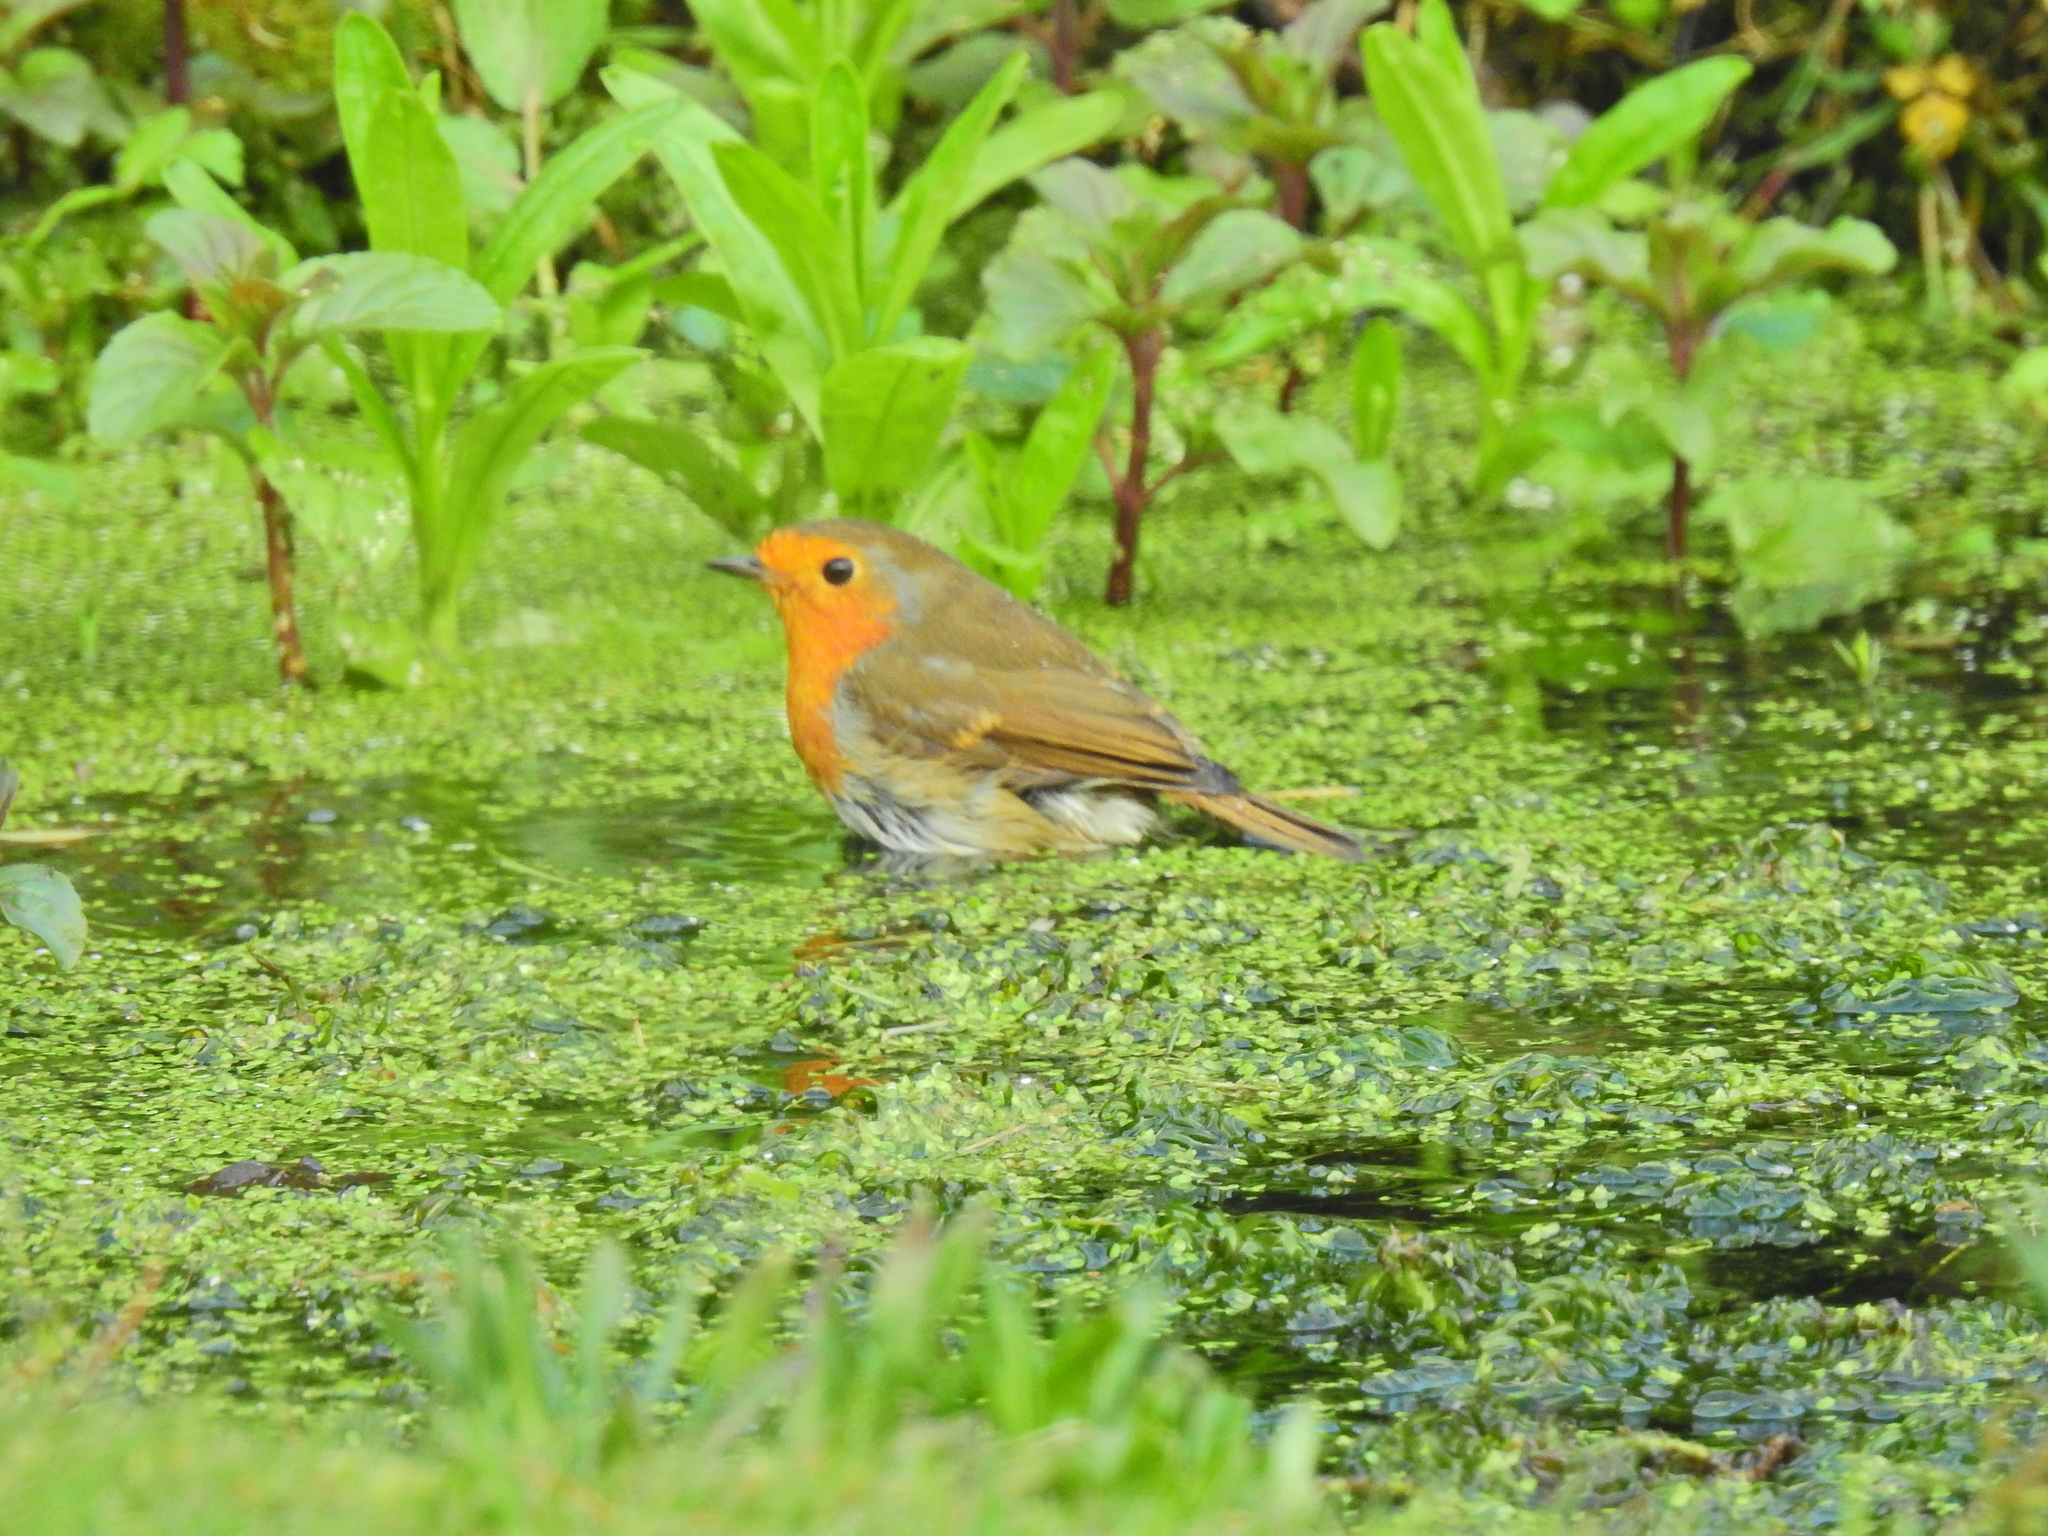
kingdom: Animalia
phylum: Chordata
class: Aves
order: Passeriformes
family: Muscicapidae
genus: Erithacus
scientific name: Erithacus rubecula
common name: European robin
